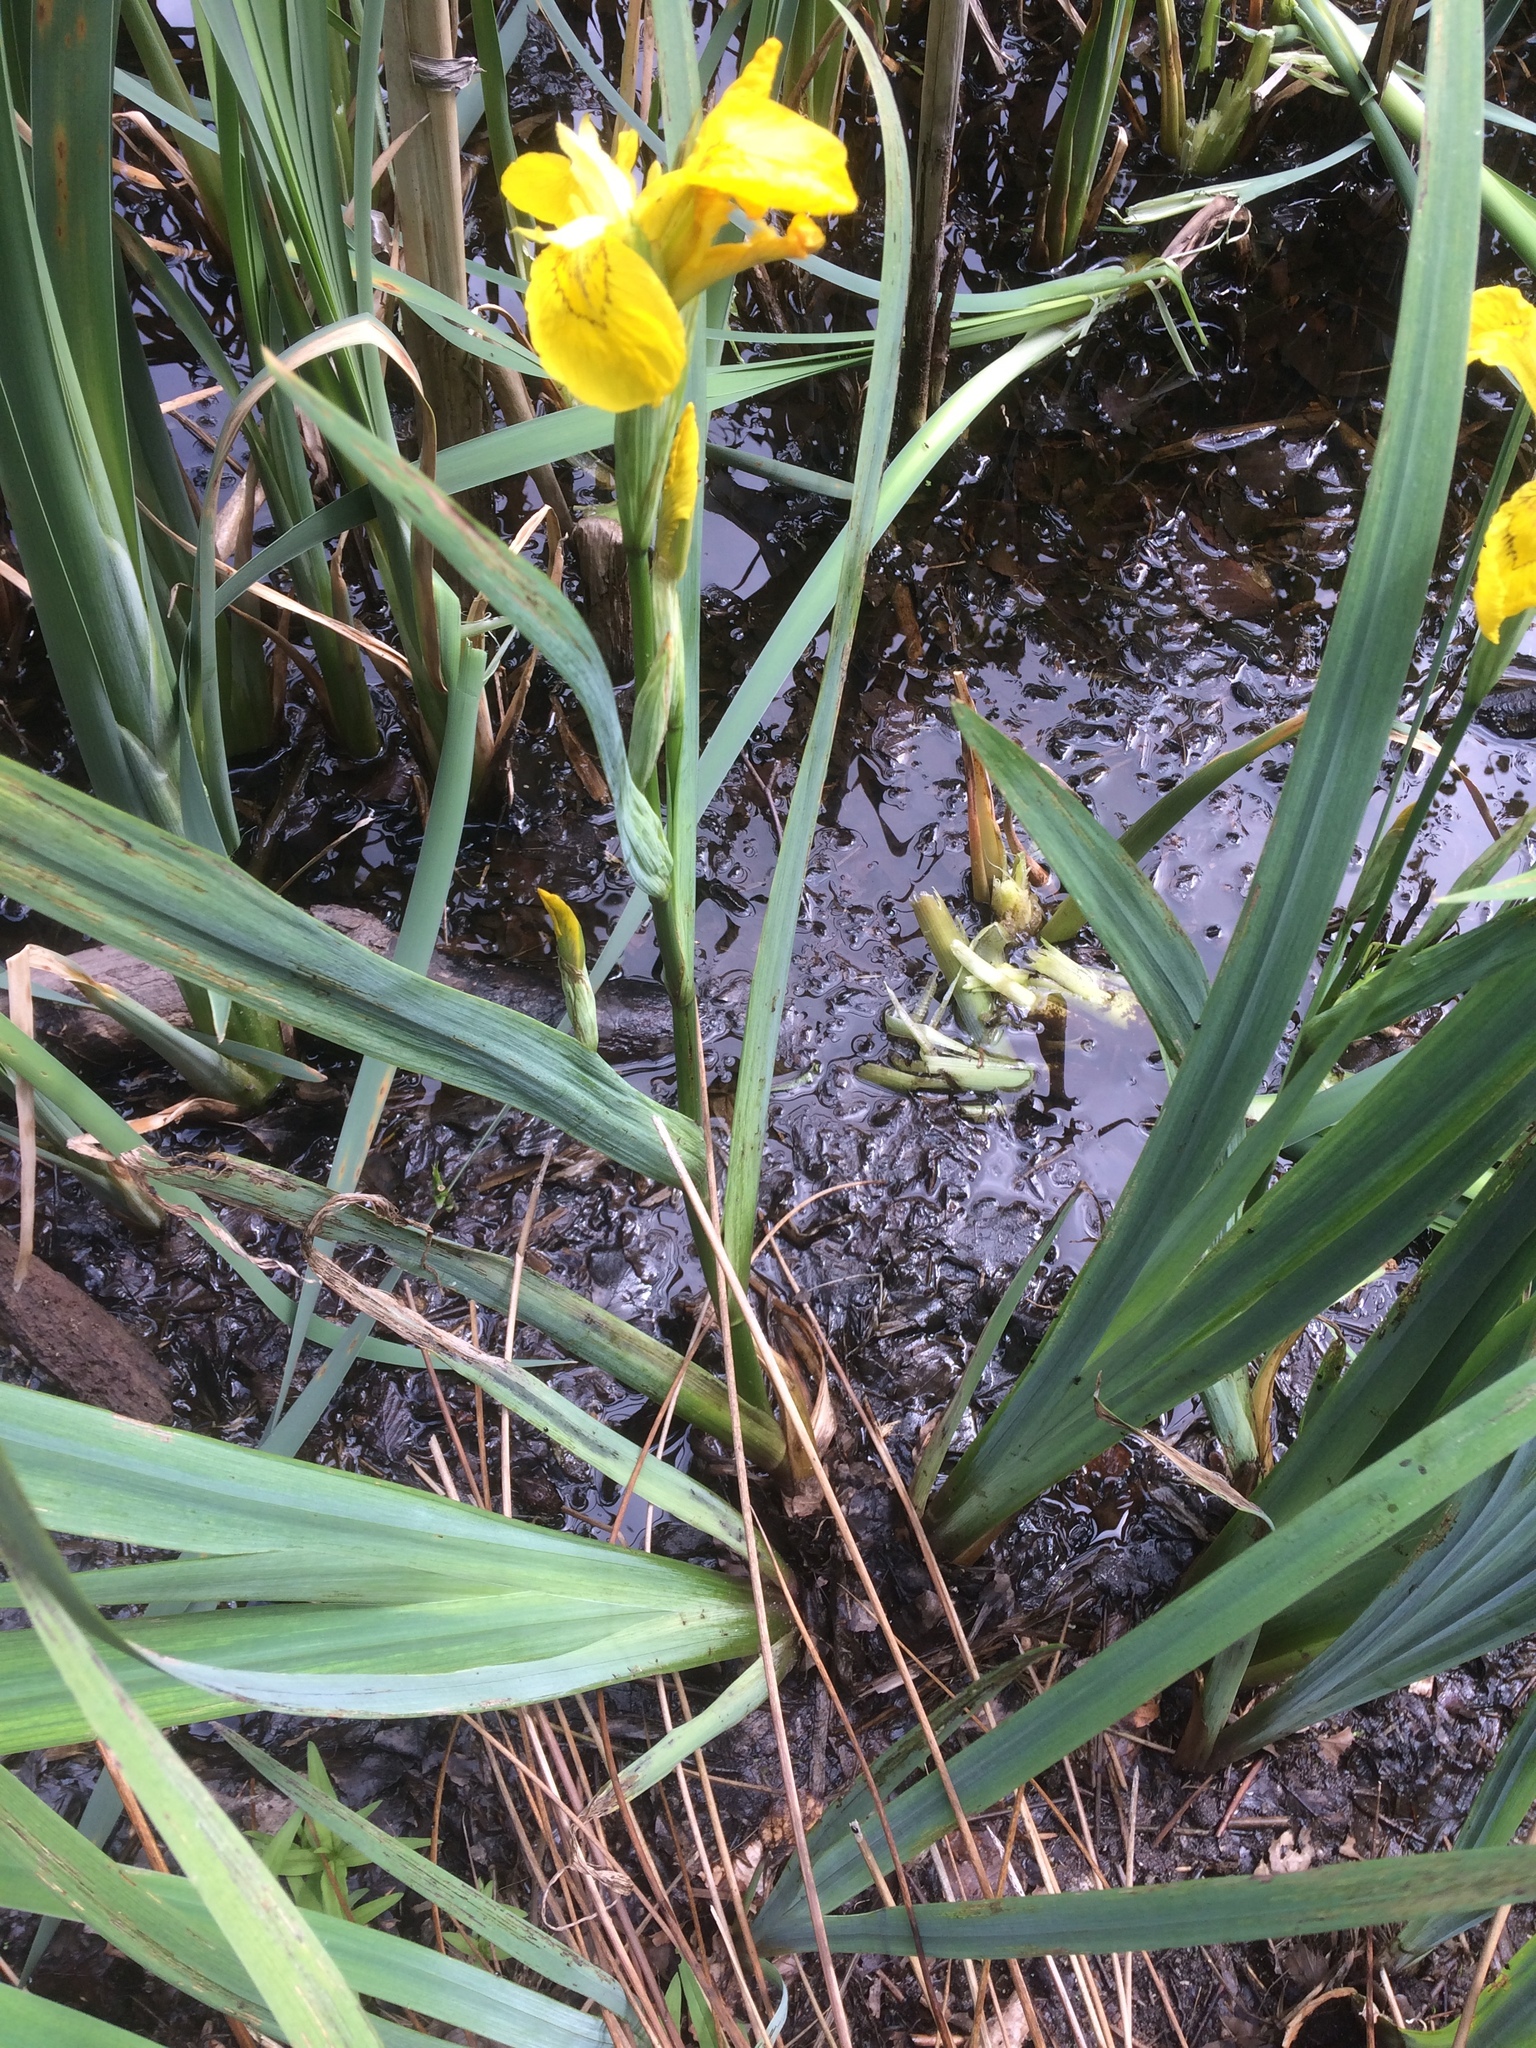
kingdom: Plantae
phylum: Tracheophyta
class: Liliopsida
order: Asparagales
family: Iridaceae
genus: Iris
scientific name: Iris pseudacorus
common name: Yellow flag
